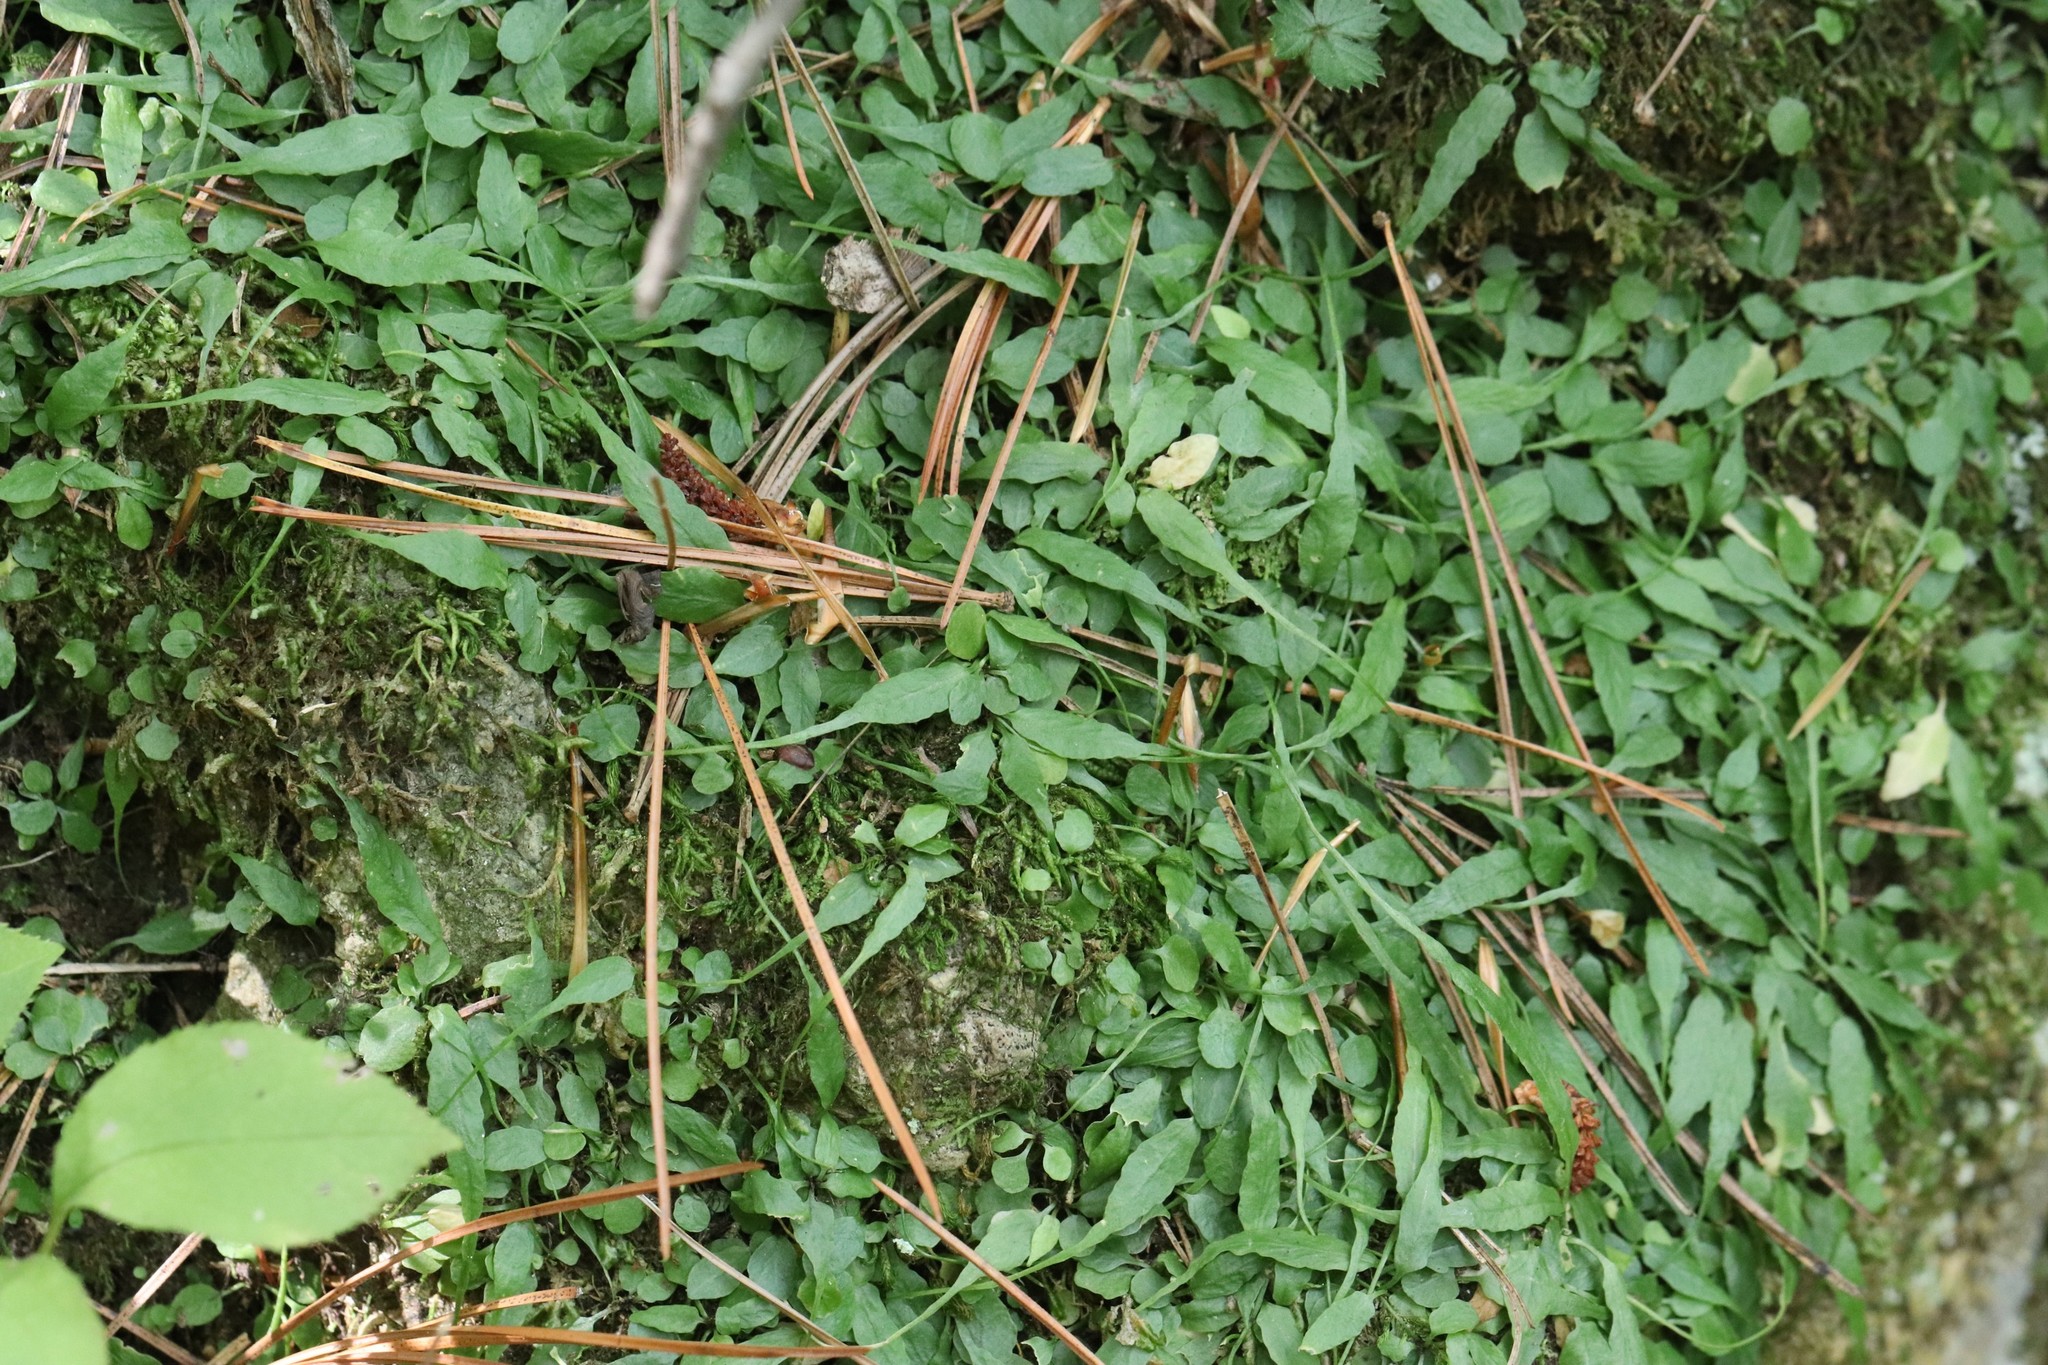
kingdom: Plantae
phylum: Tracheophyta
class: Polypodiopsida
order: Polypodiales
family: Aspleniaceae
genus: Asplenium
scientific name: Asplenium ruprechtii
